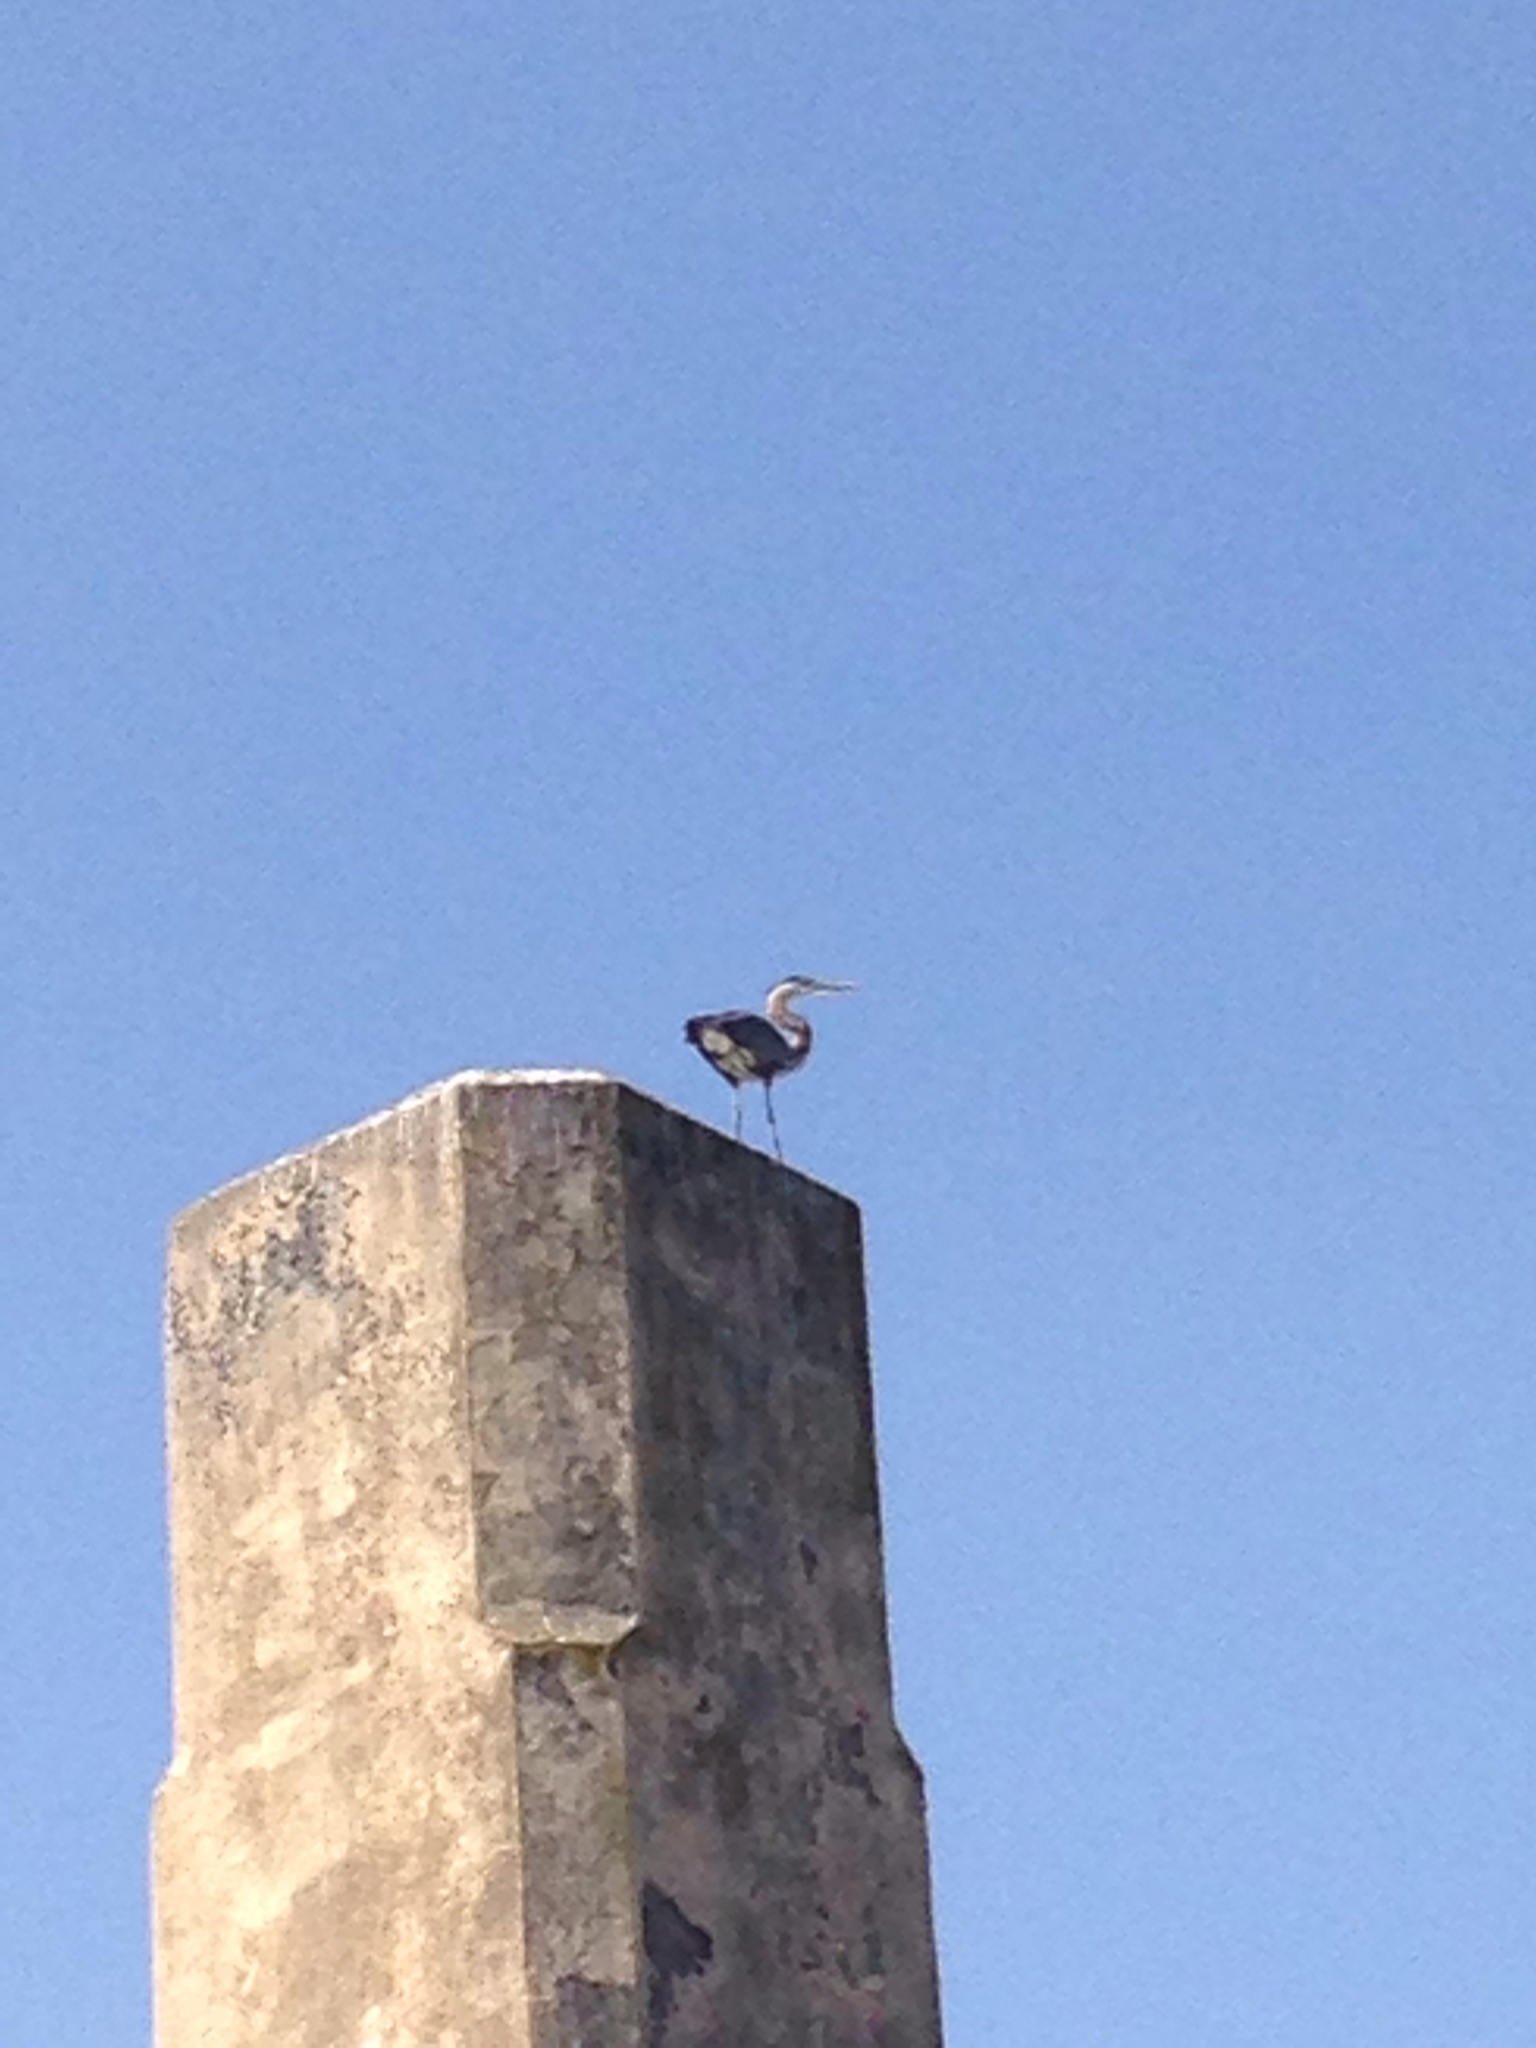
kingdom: Animalia
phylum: Chordata
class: Aves
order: Pelecaniformes
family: Ardeidae
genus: Ardea
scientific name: Ardea herodias
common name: Great blue heron
